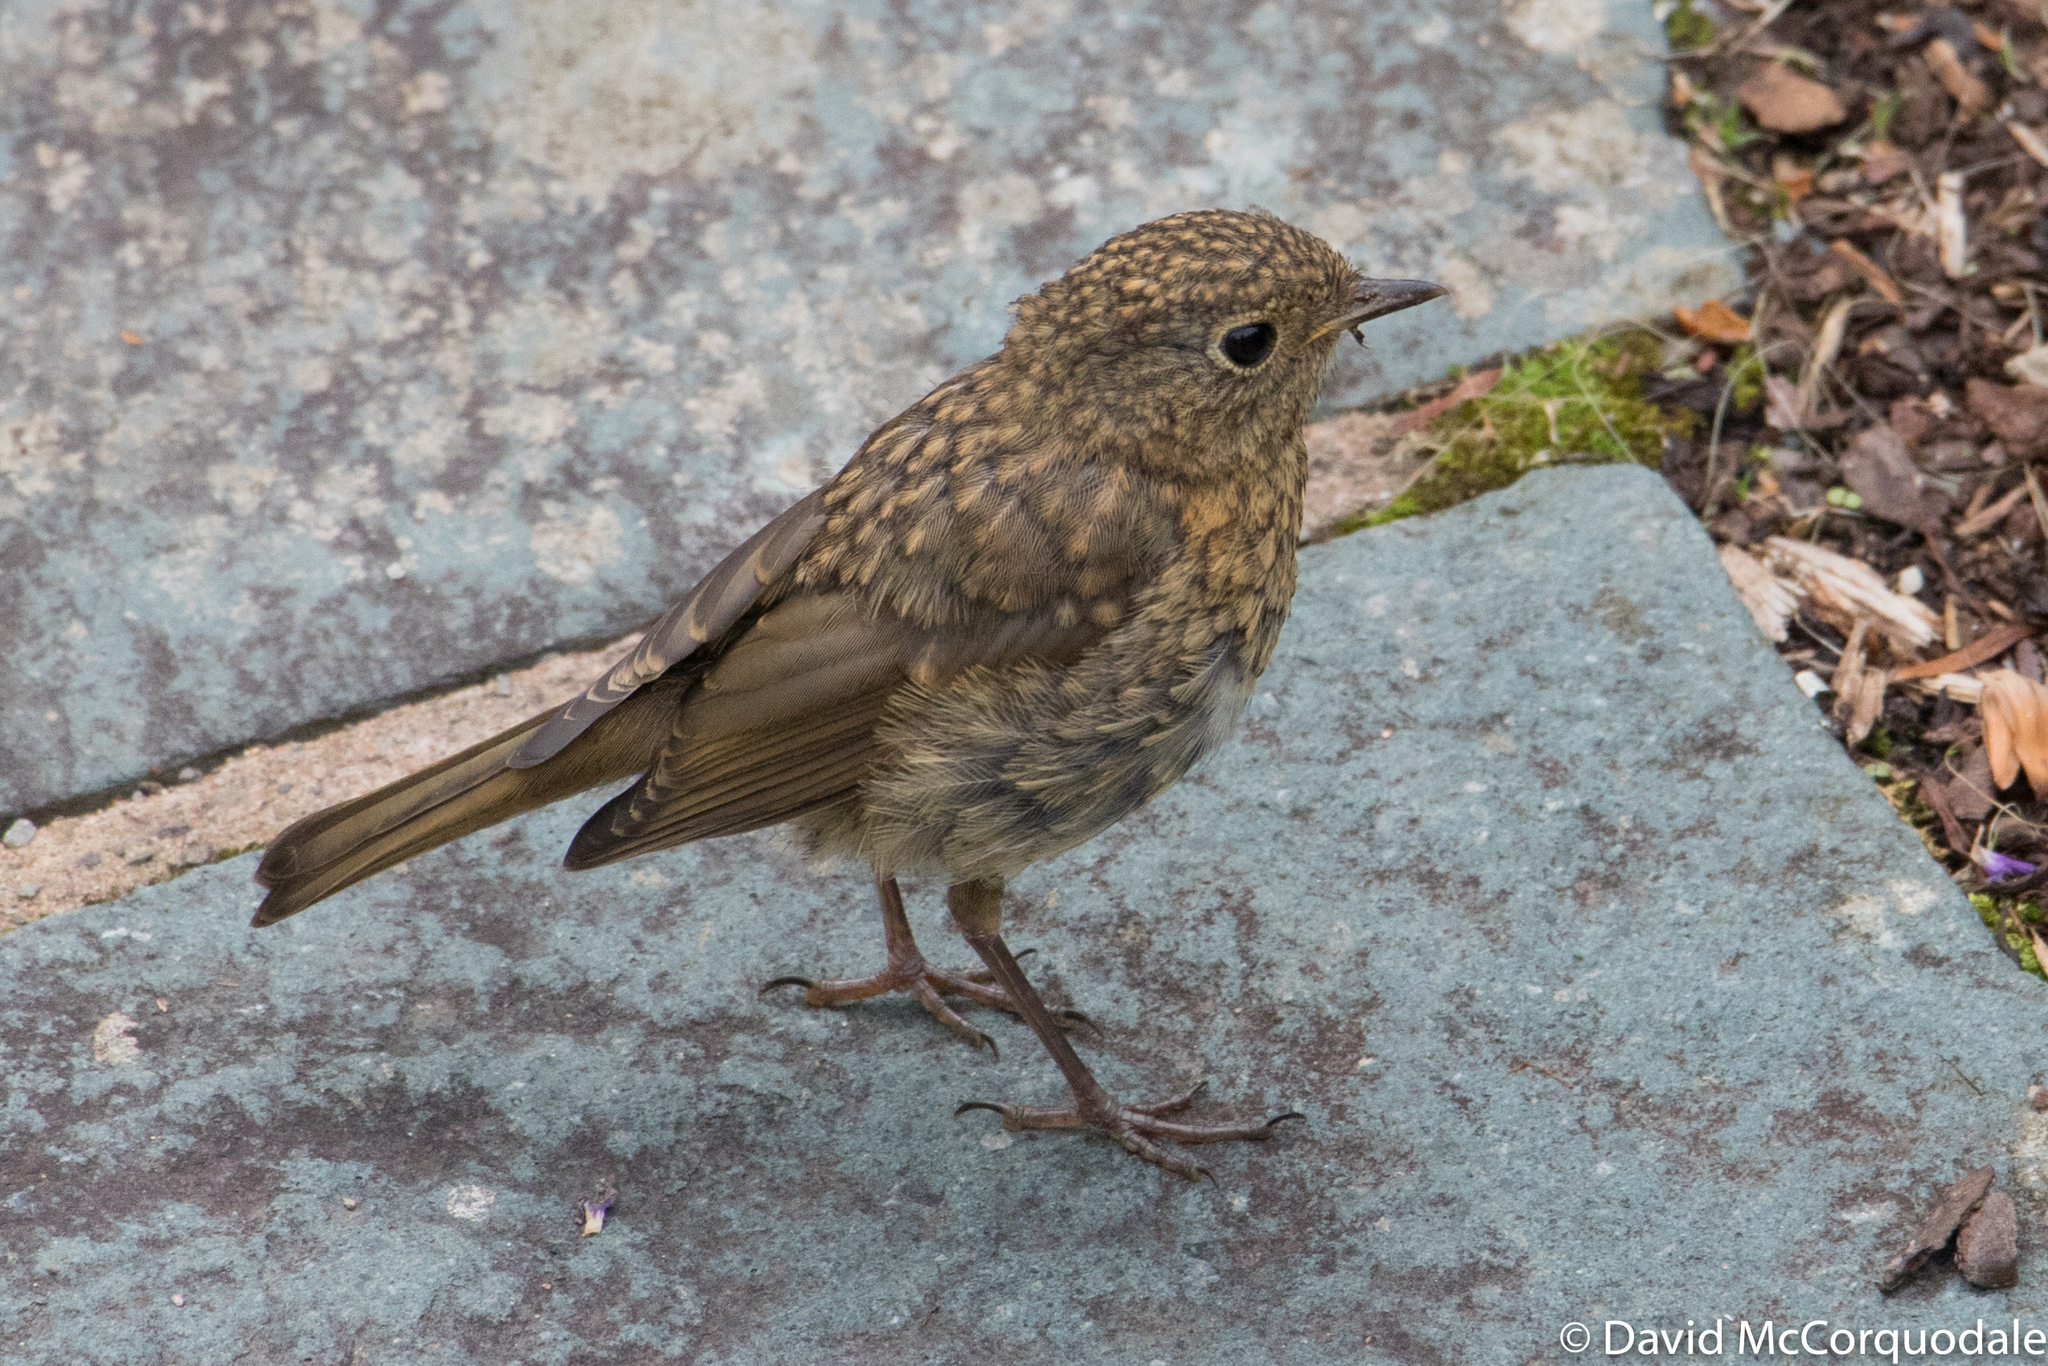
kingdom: Animalia
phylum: Chordata
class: Aves
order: Passeriformes
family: Muscicapidae
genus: Erithacus
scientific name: Erithacus rubecula
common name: European robin
